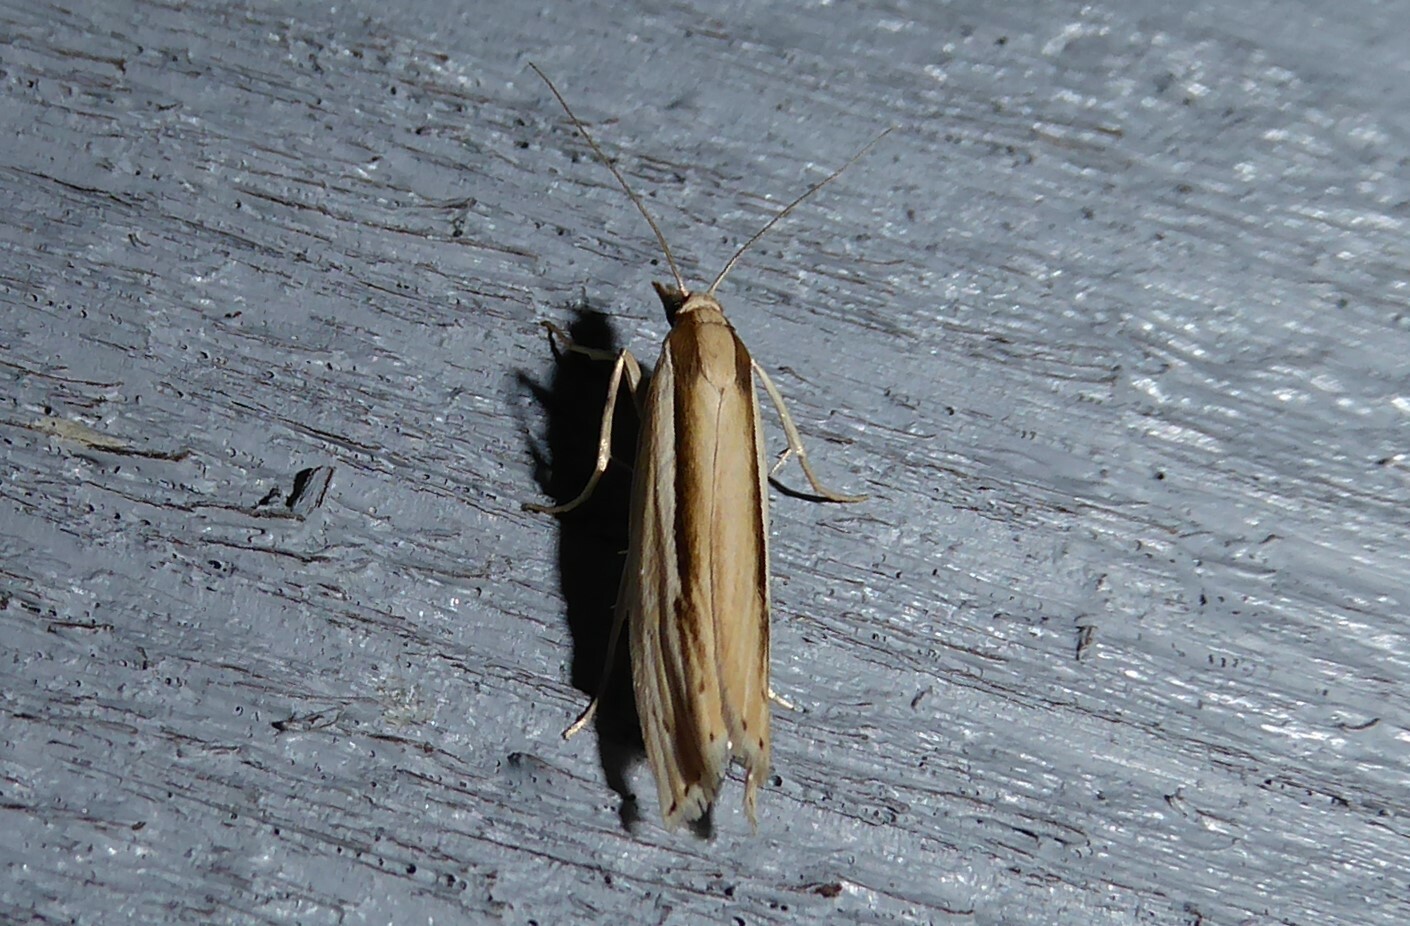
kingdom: Animalia
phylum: Arthropoda
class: Insecta
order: Lepidoptera
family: Crambidae
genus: Orocrambus
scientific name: Orocrambus ramosellus
